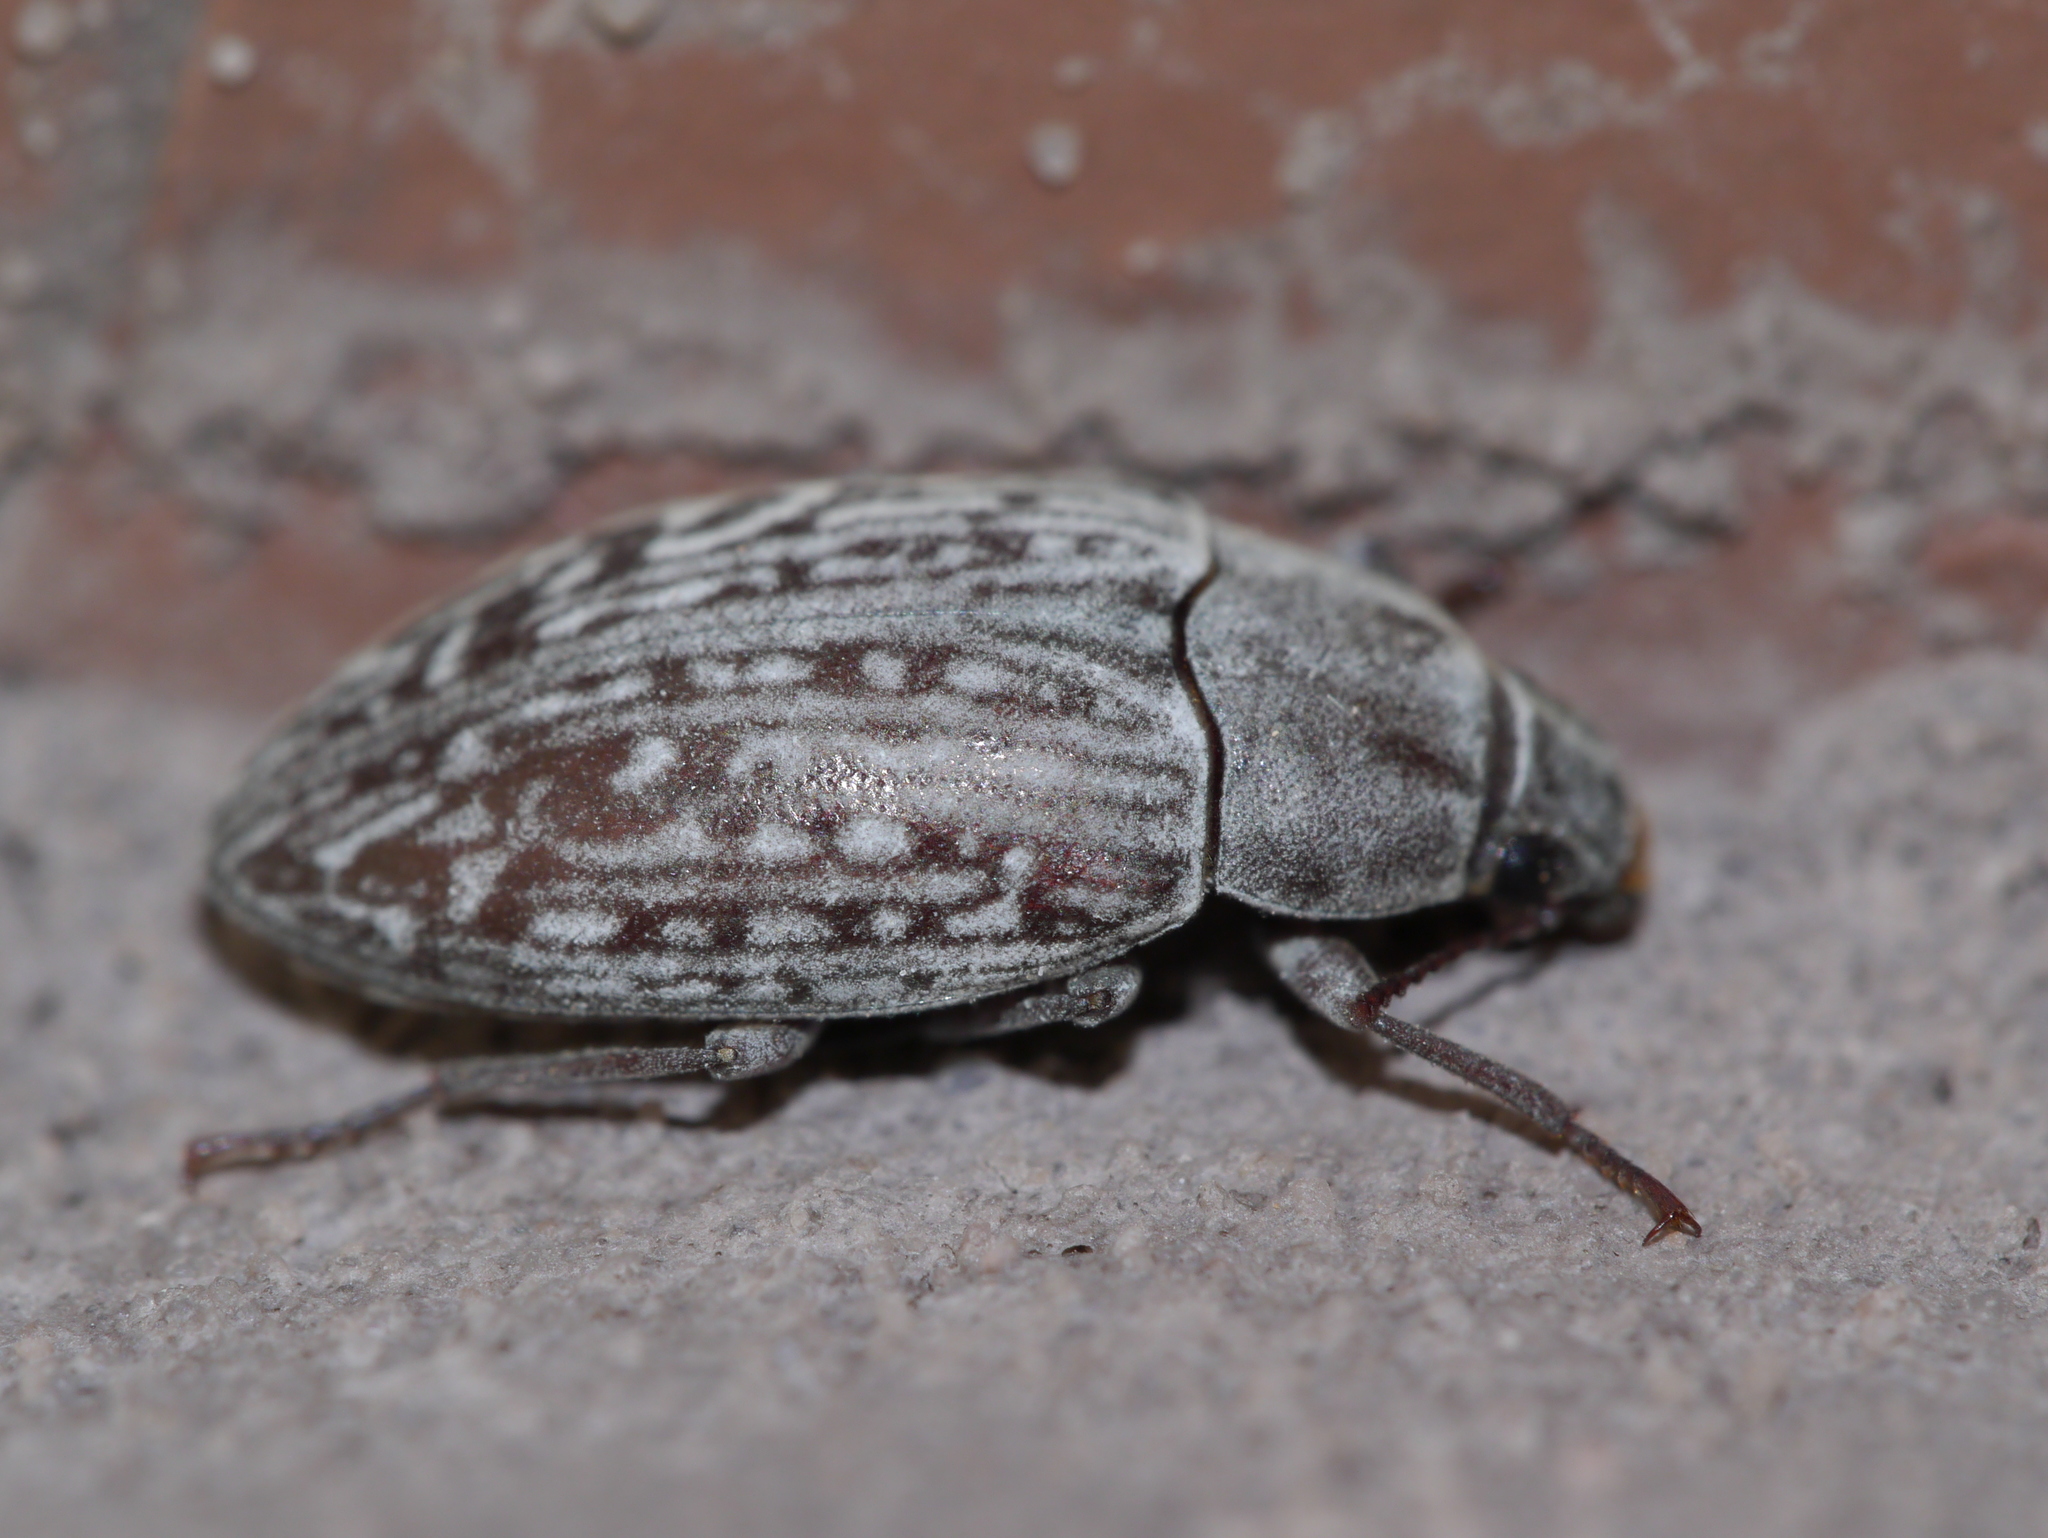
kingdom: Animalia
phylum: Arthropoda
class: Insecta
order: Coleoptera
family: Tenebrionidae
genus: Metopoloba
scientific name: Metopoloba pruinosa
